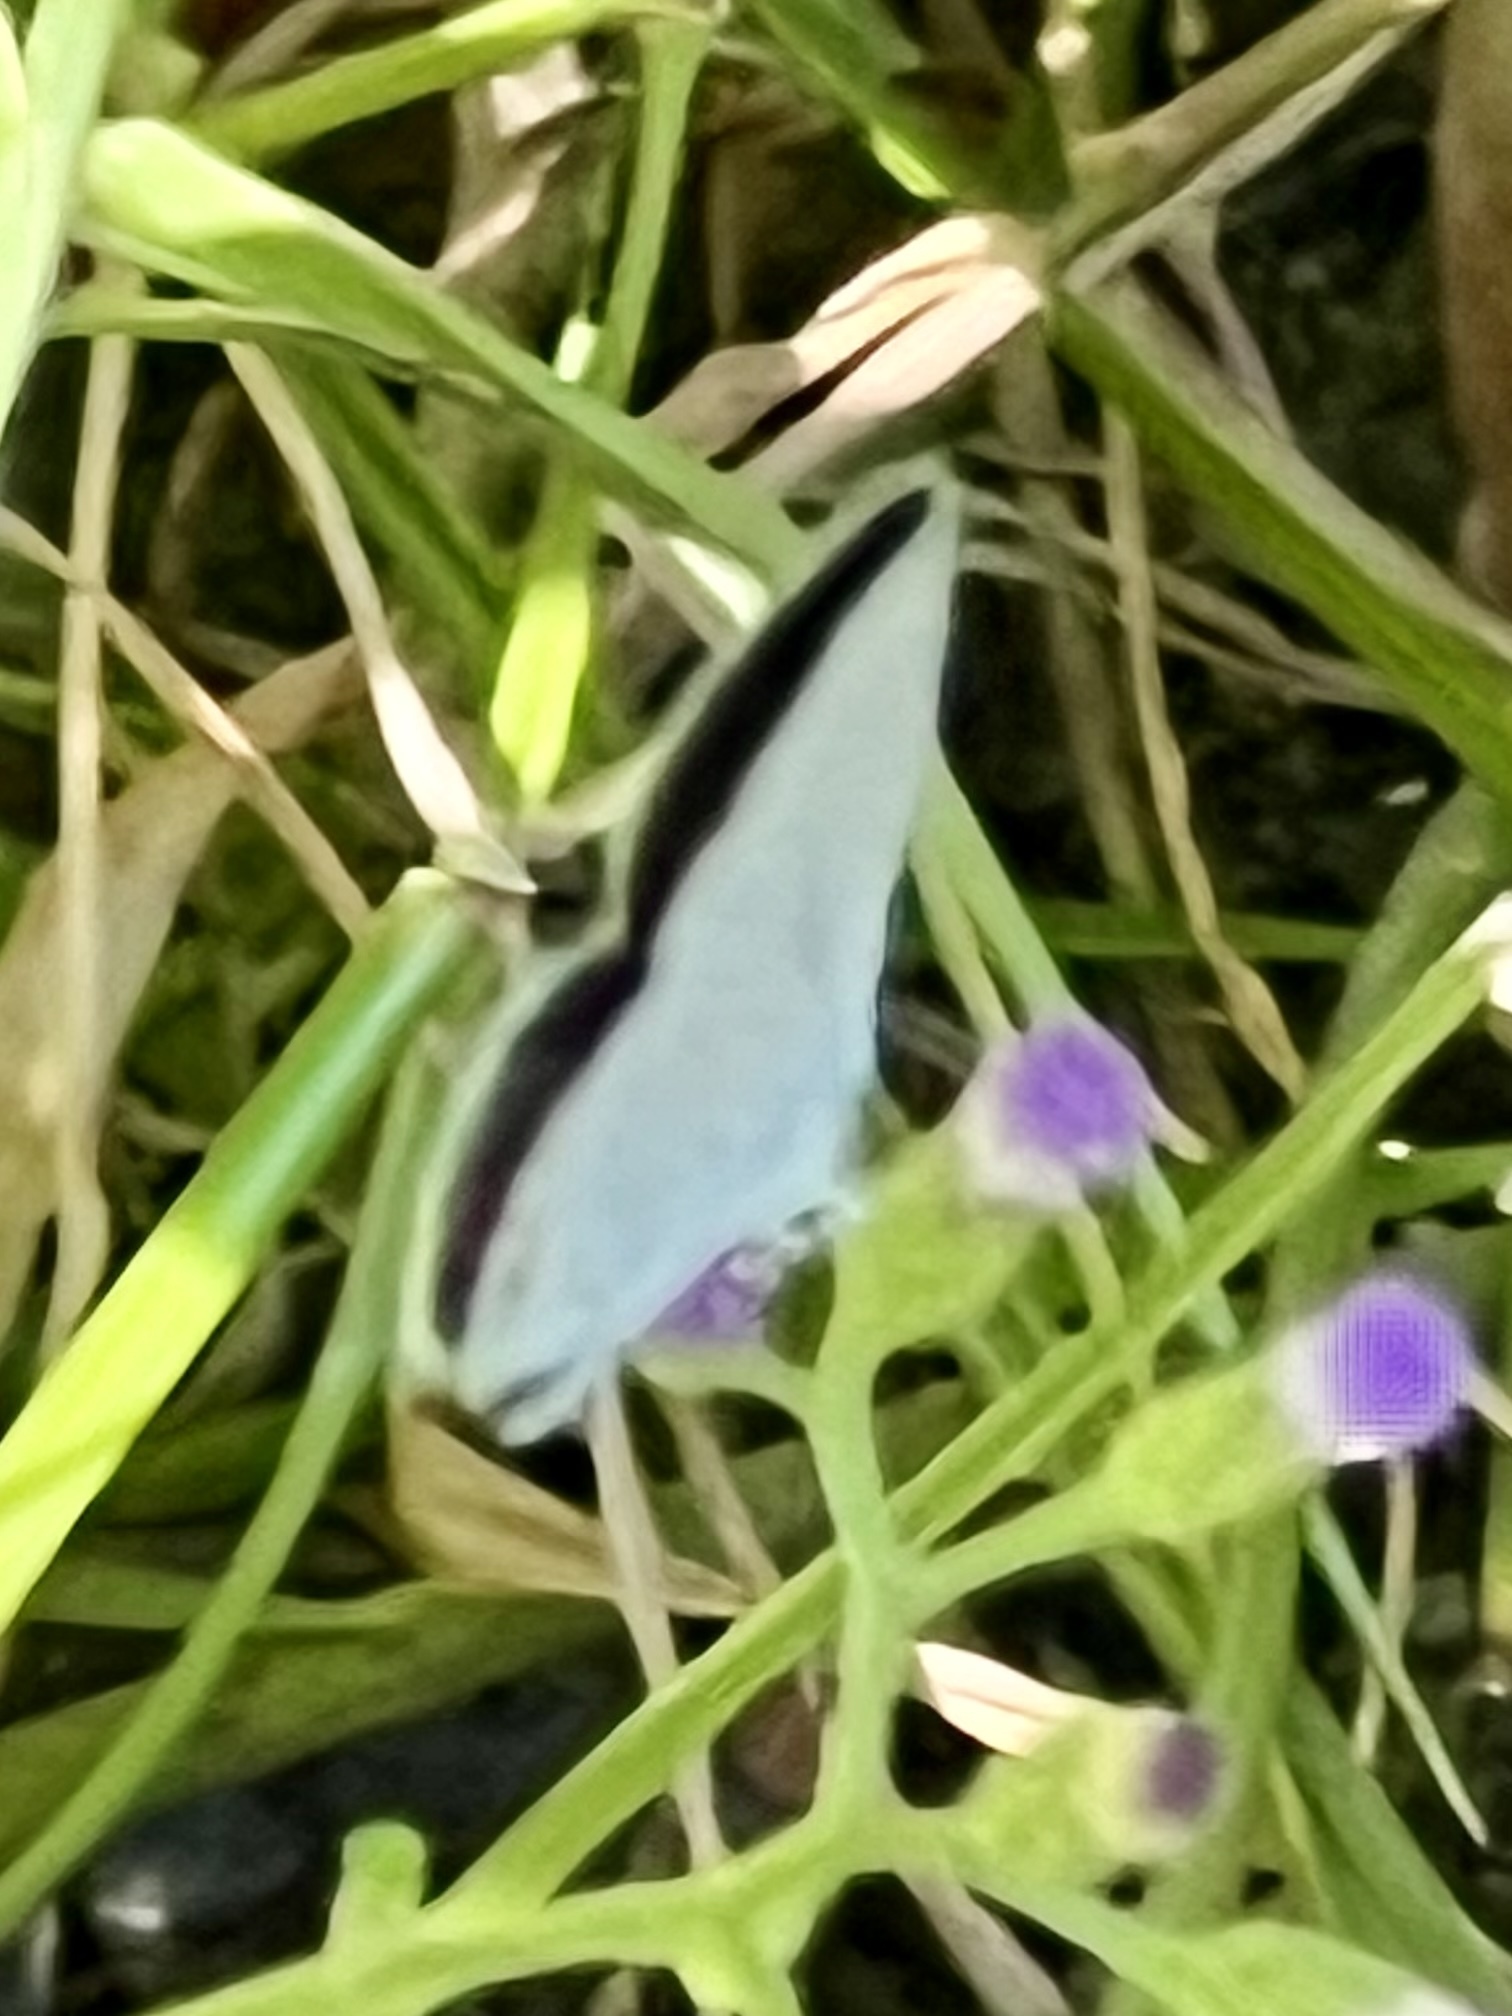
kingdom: Animalia
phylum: Arthropoda
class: Insecta
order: Lepidoptera
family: Lycaenidae
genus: Elkalyce
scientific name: Elkalyce comyntas
